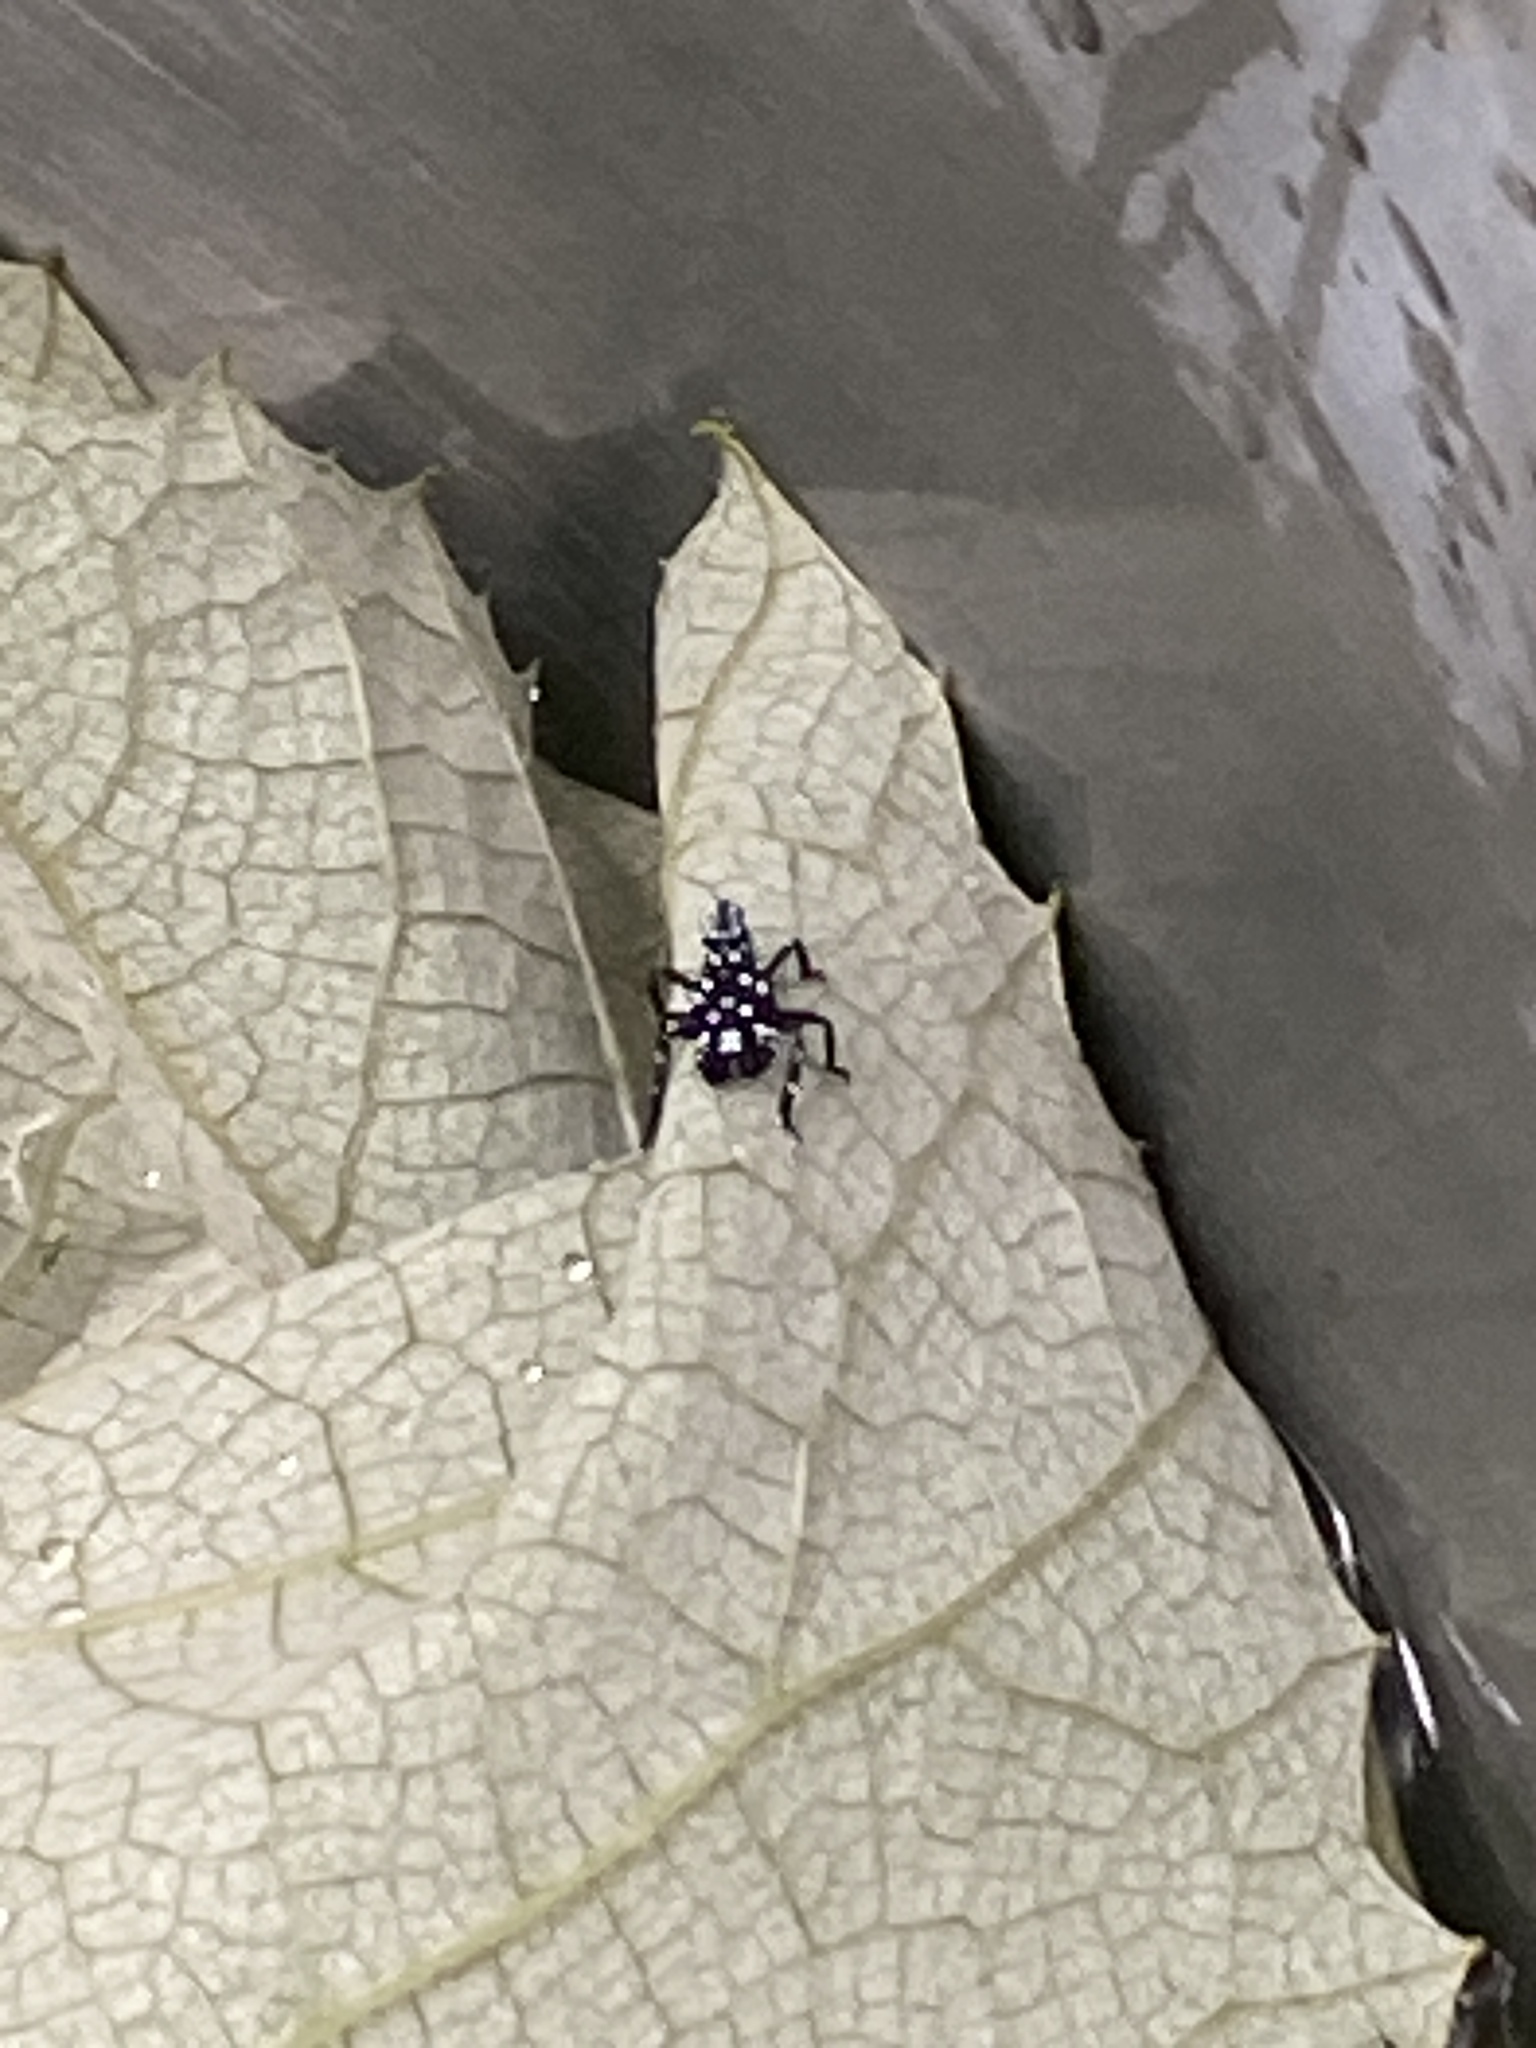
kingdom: Animalia
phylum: Arthropoda
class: Insecta
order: Hemiptera
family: Fulgoridae
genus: Lycorma
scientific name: Lycorma delicatula
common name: Spotted lanternfly
